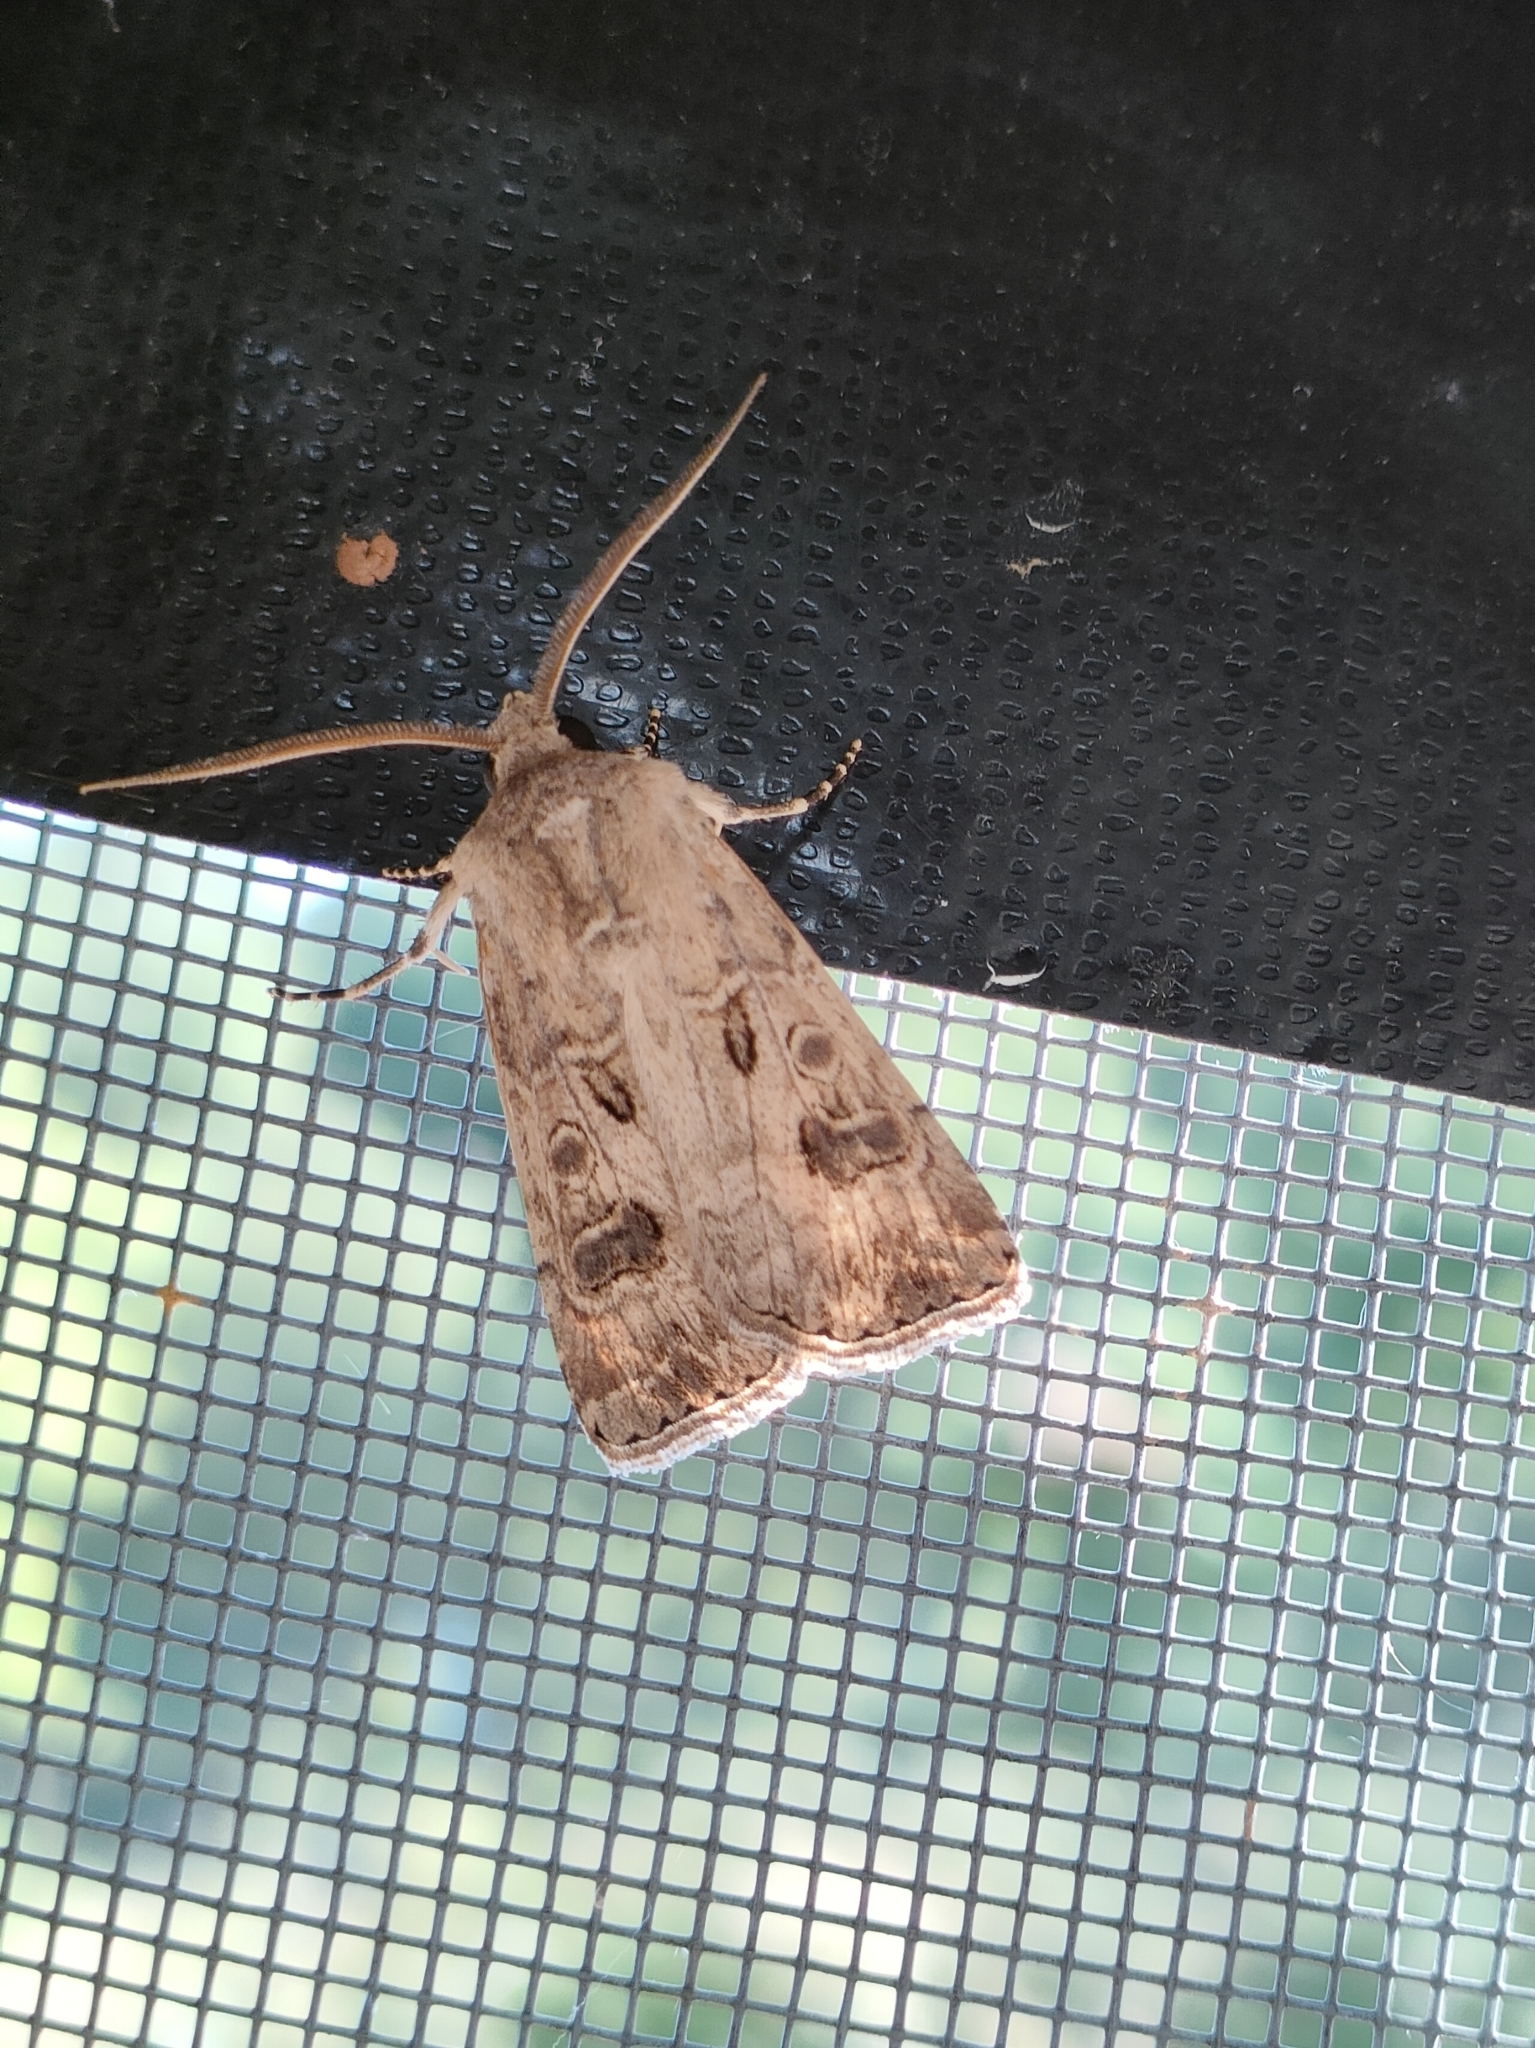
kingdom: Animalia
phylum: Arthropoda
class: Insecta
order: Lepidoptera
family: Noctuidae
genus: Agrotis
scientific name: Agrotis bigramma
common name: Great dart
